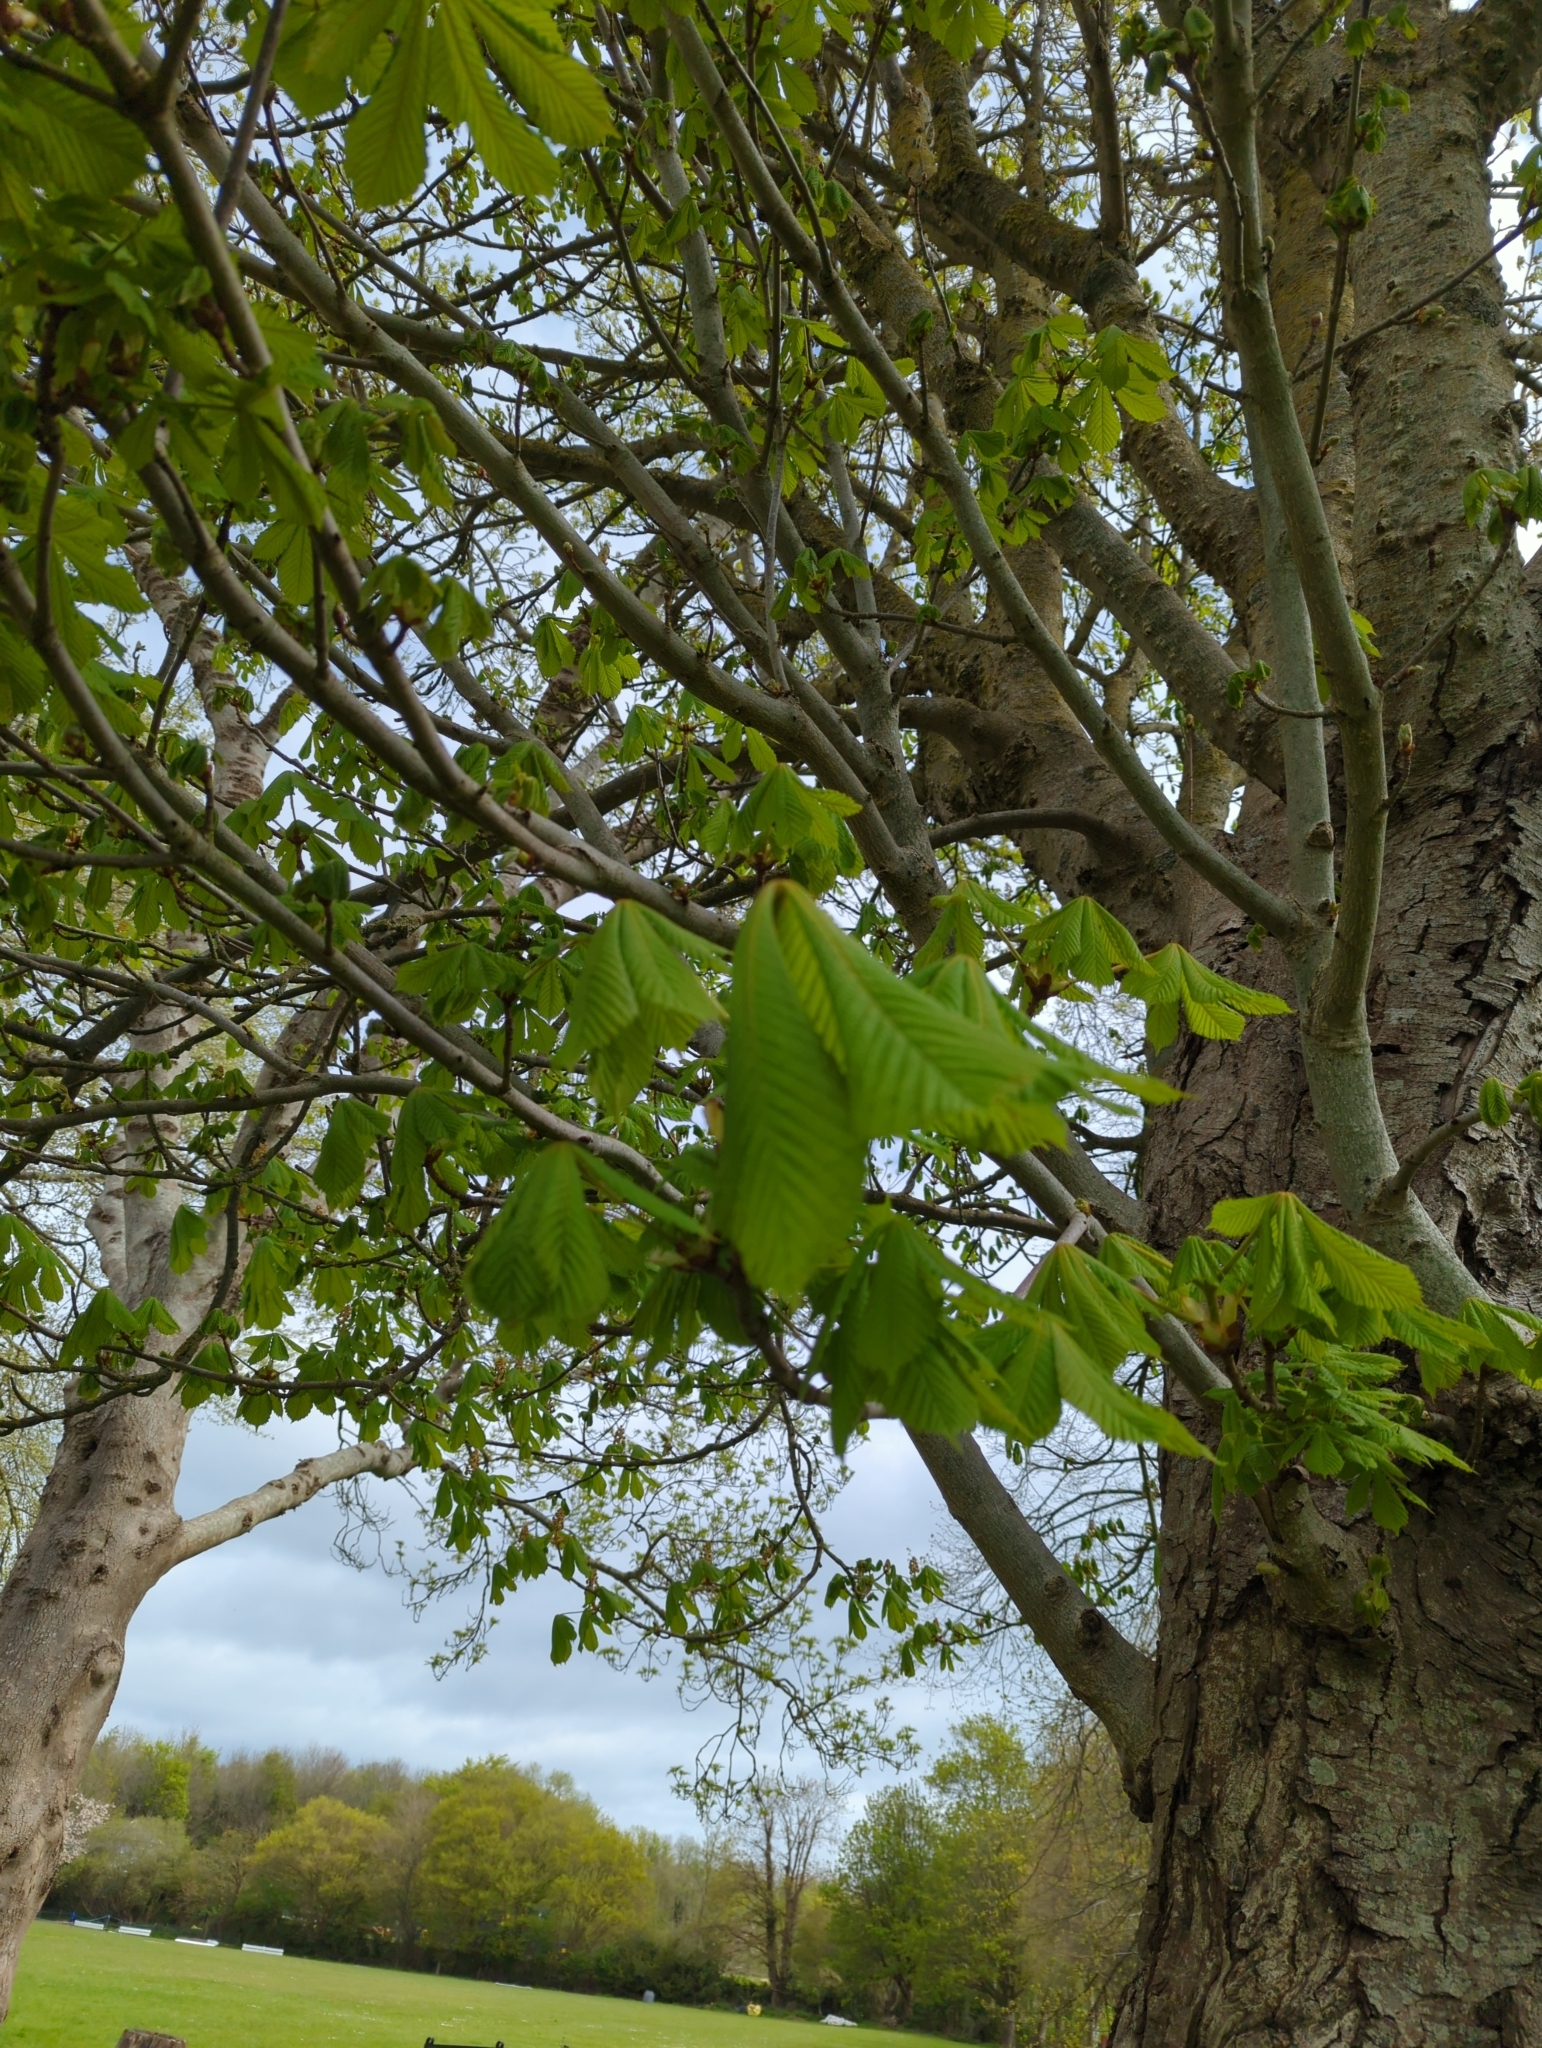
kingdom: Plantae
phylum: Tracheophyta
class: Magnoliopsida
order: Sapindales
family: Sapindaceae
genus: Aesculus
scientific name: Aesculus hippocastanum
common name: Horse-chestnut
